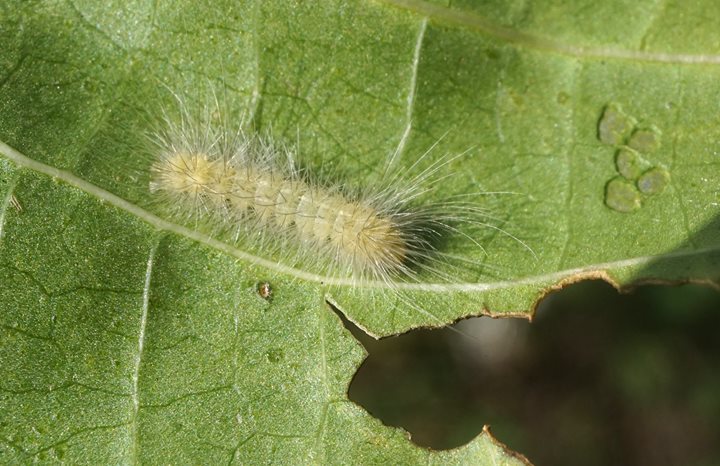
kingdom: Animalia
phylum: Arthropoda
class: Insecta
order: Lepidoptera
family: Erebidae
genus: Spilosoma
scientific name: Spilosoma virginica
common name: Virginia tiger moth
